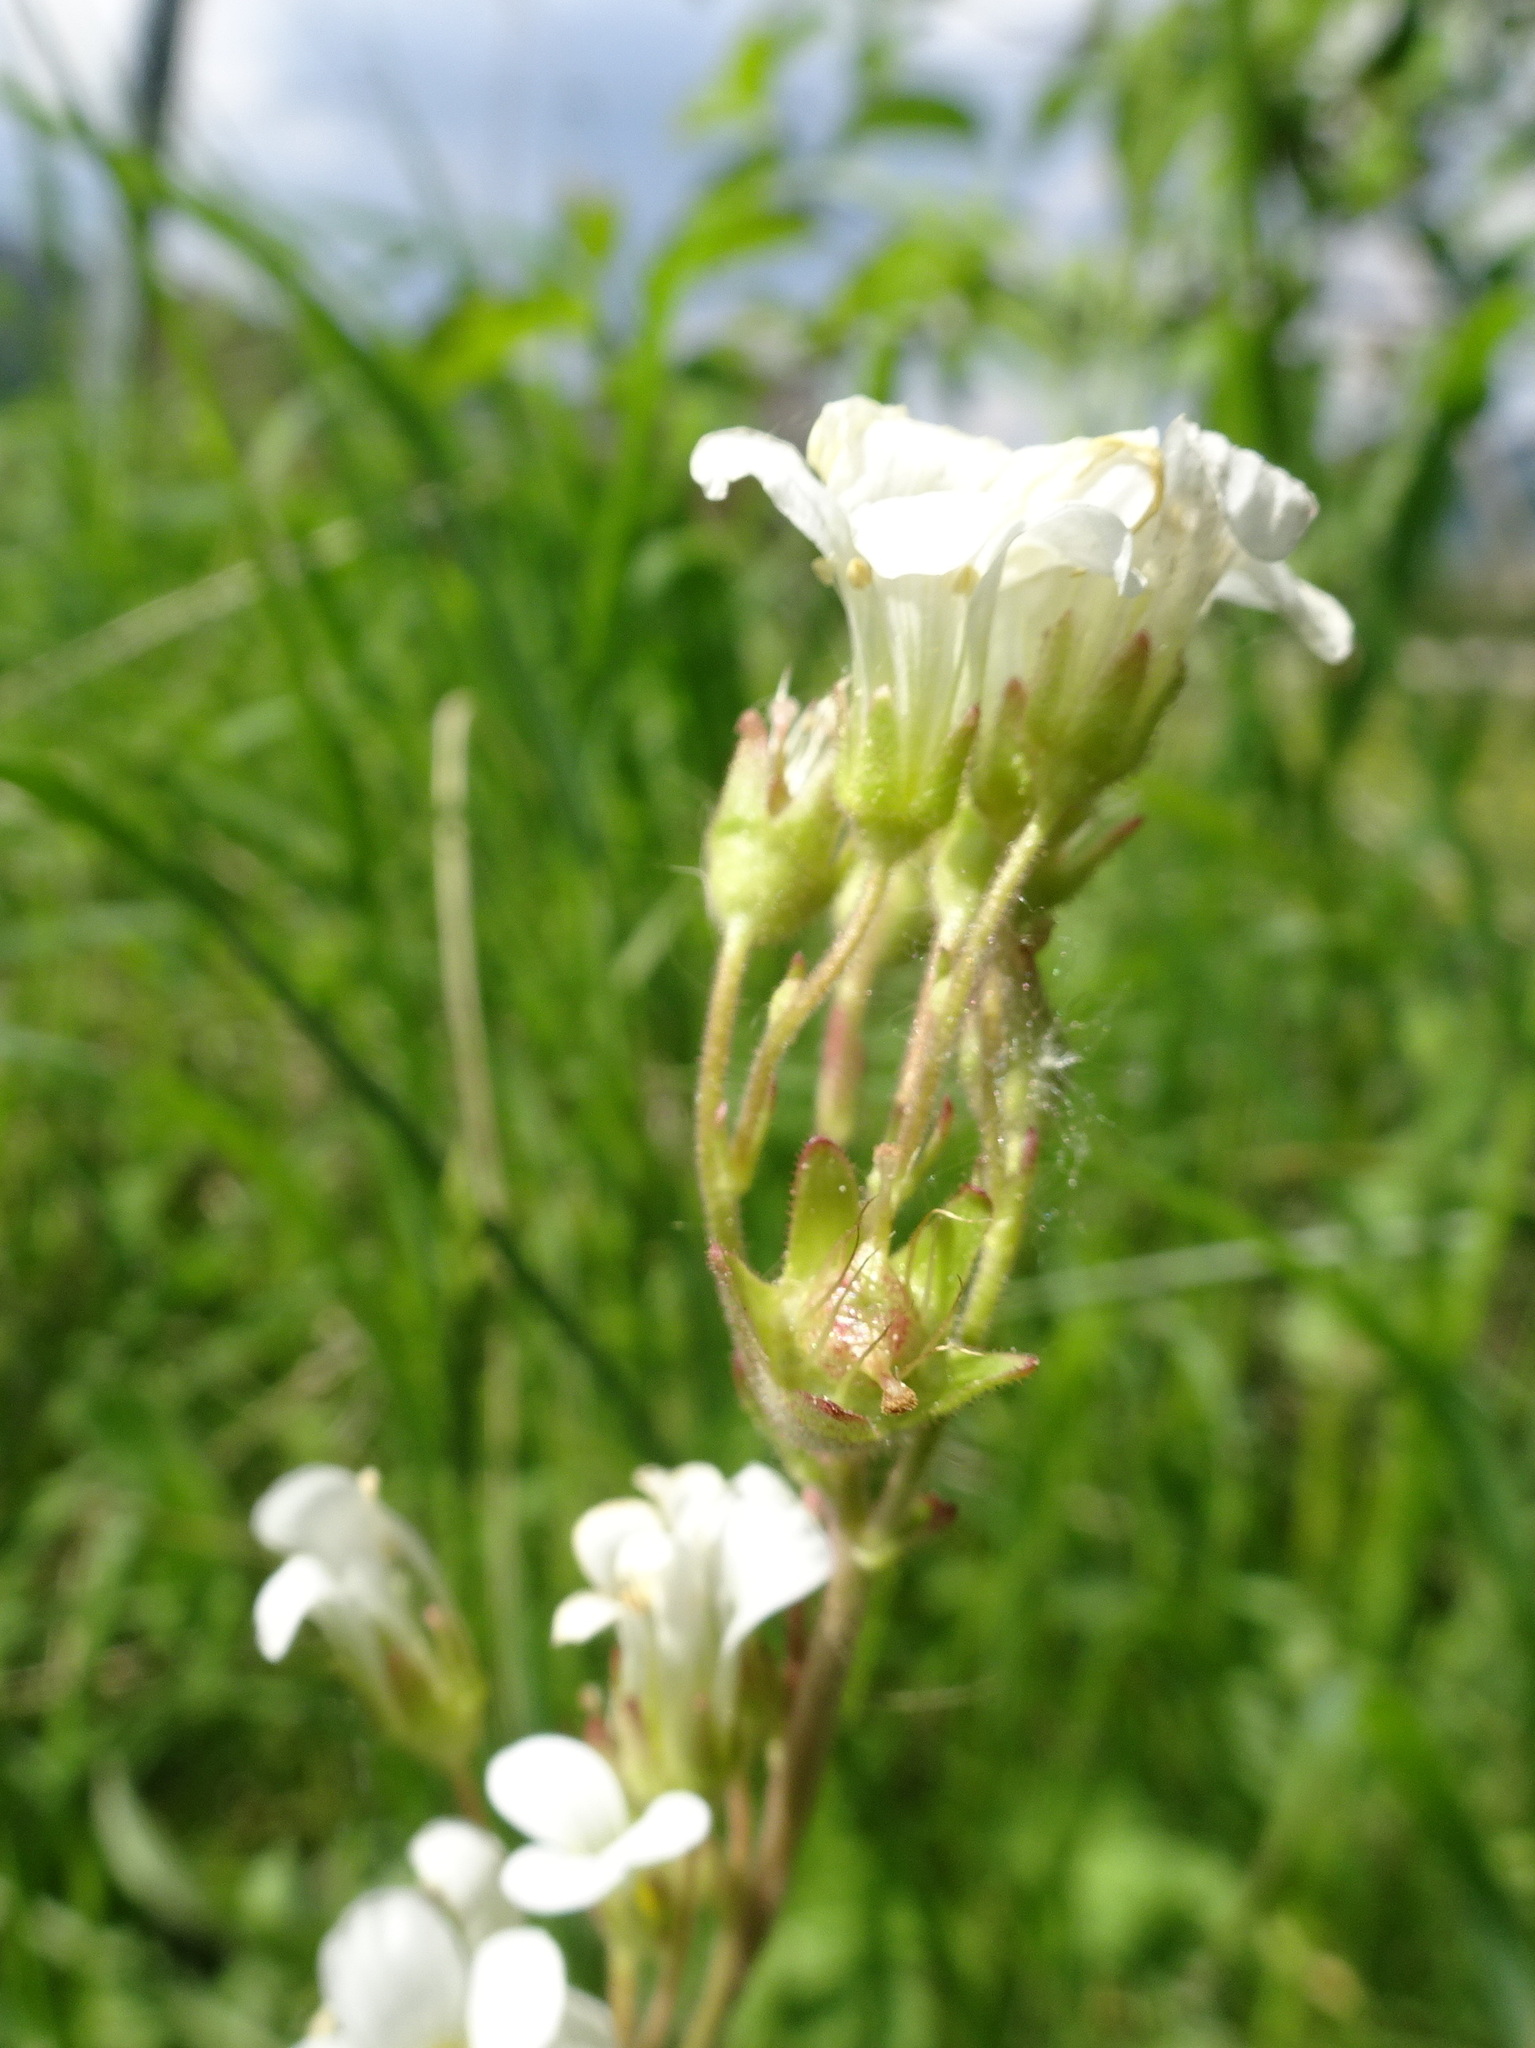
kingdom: Plantae
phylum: Tracheophyta
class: Magnoliopsida
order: Saxifragales
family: Saxifragaceae
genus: Saxifraga
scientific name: Saxifraga granulata
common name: Meadow saxifrage
